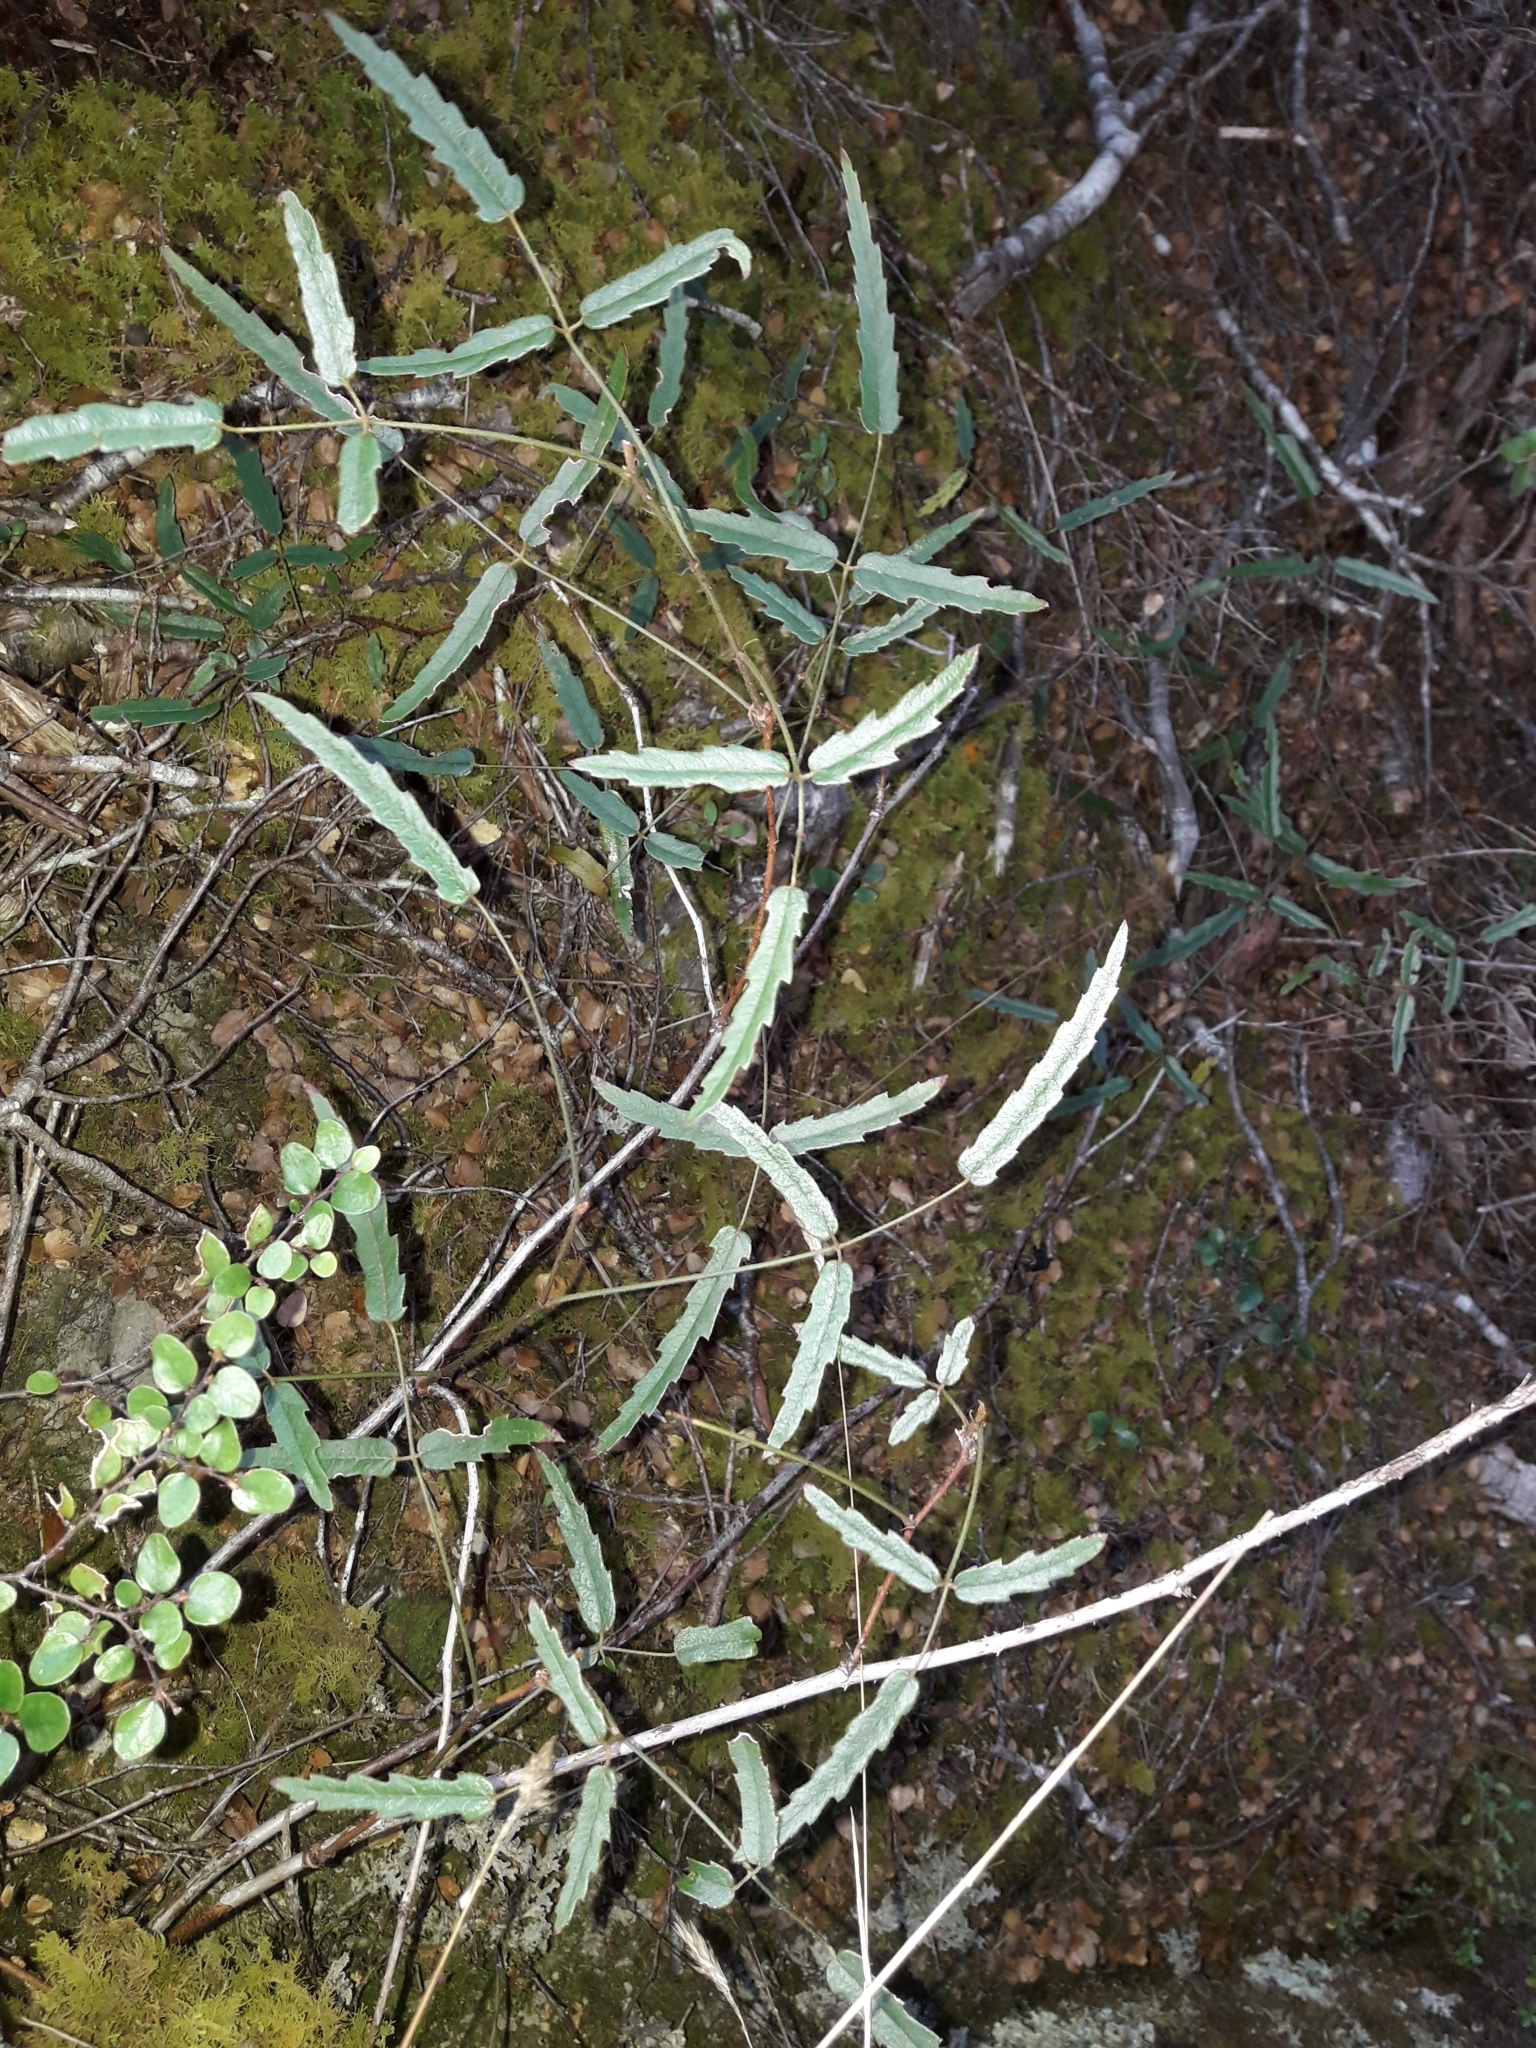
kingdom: Plantae
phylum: Tracheophyta
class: Magnoliopsida
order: Rosales
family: Rosaceae
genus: Rubus
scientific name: Rubus schmidelioides
